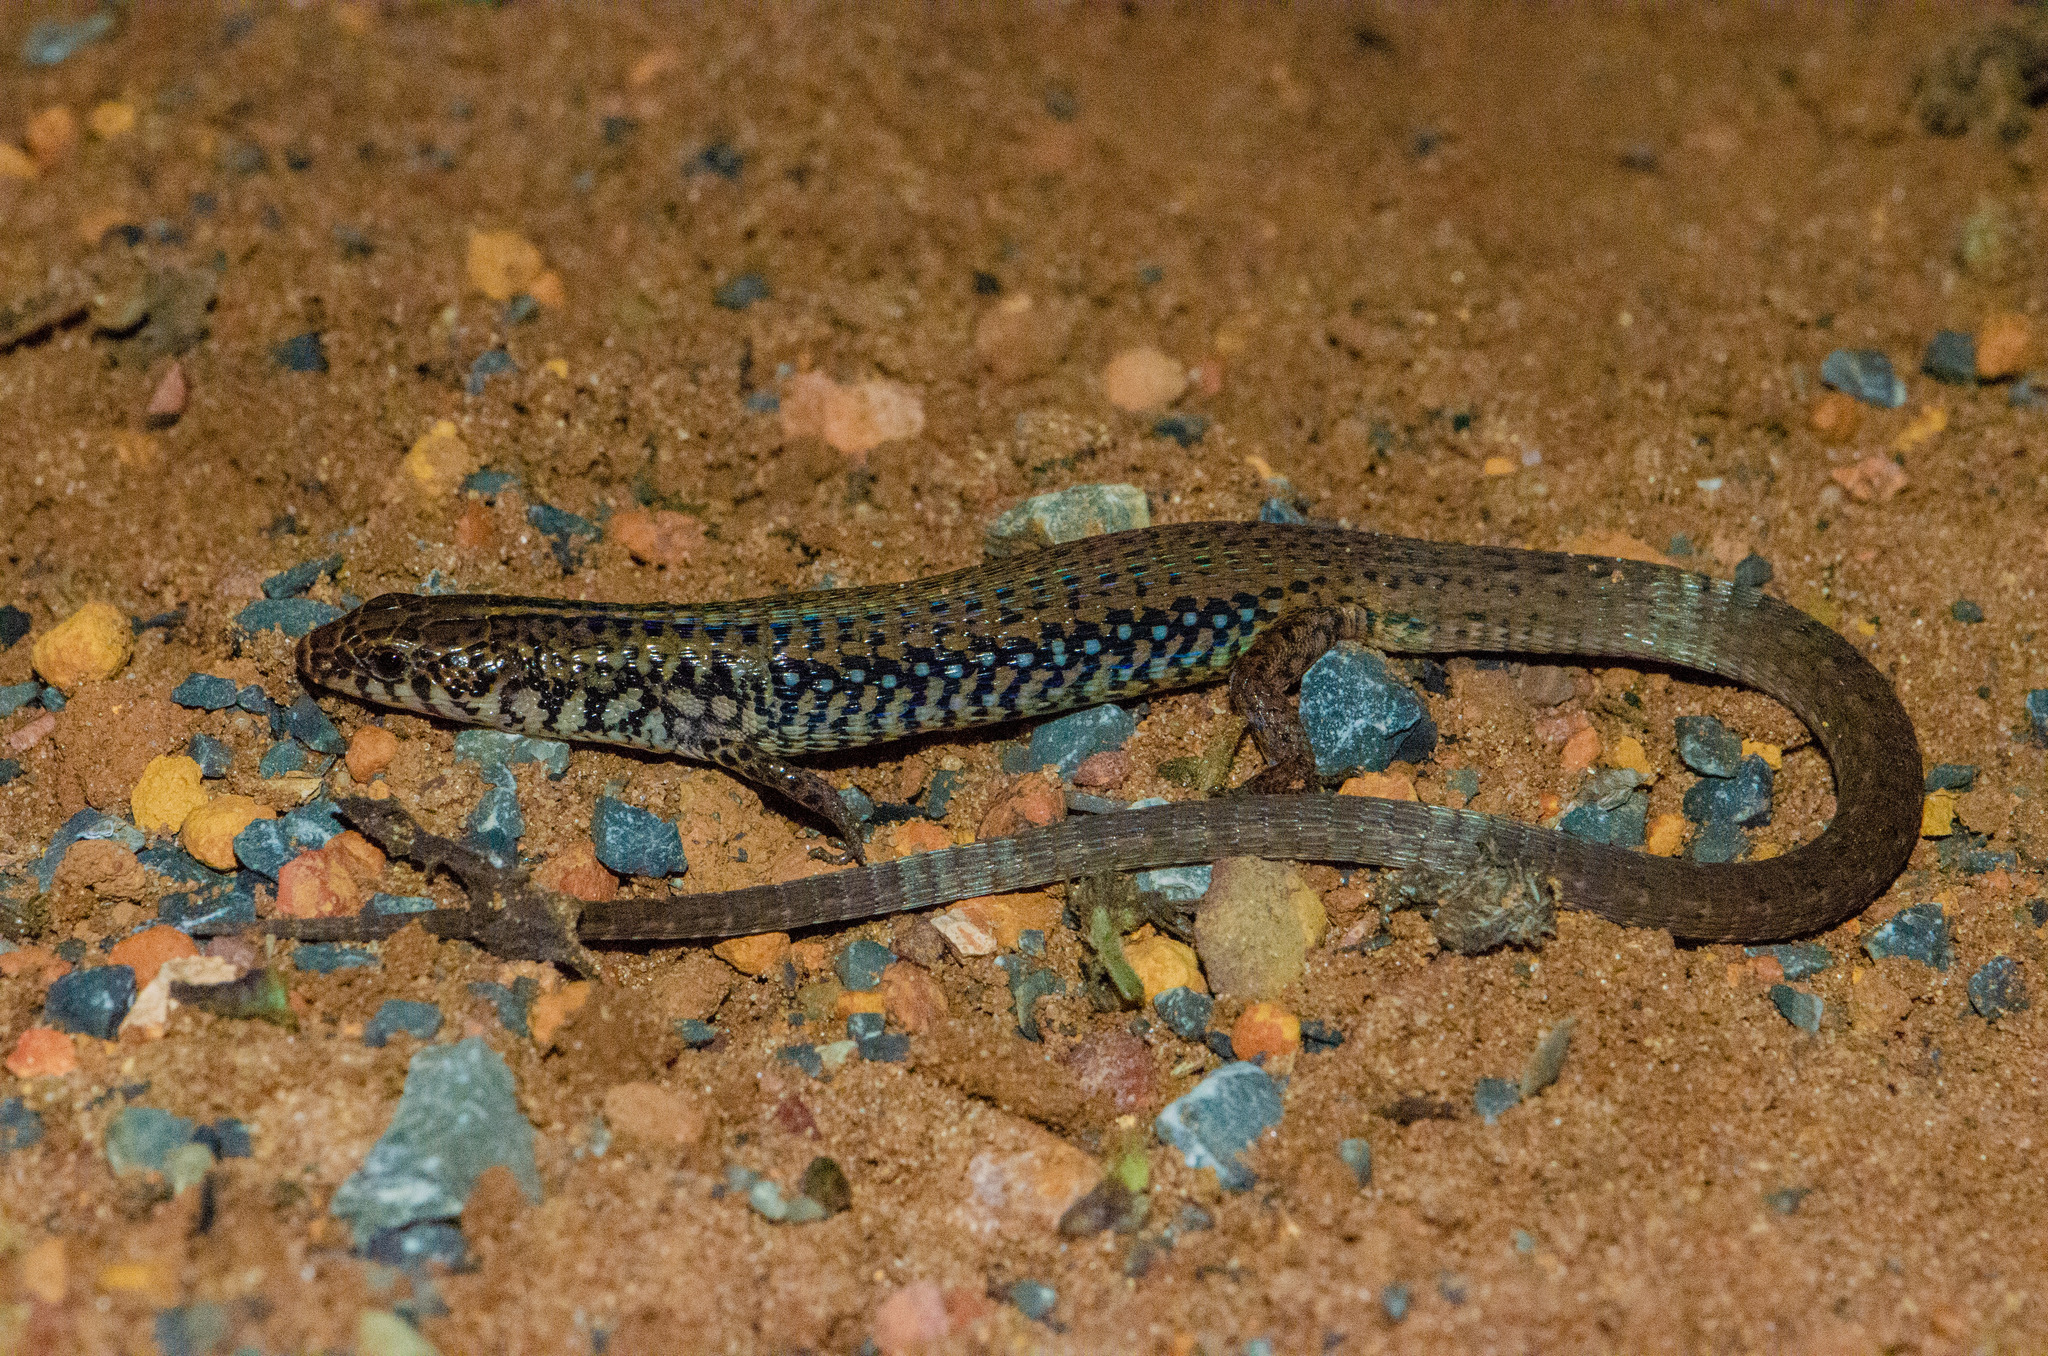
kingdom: Animalia
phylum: Chordata
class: Squamata
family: Gymnophthalmidae
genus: Acratosaura
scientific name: Acratosaura mentalis
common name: Amaral's colobosaura
